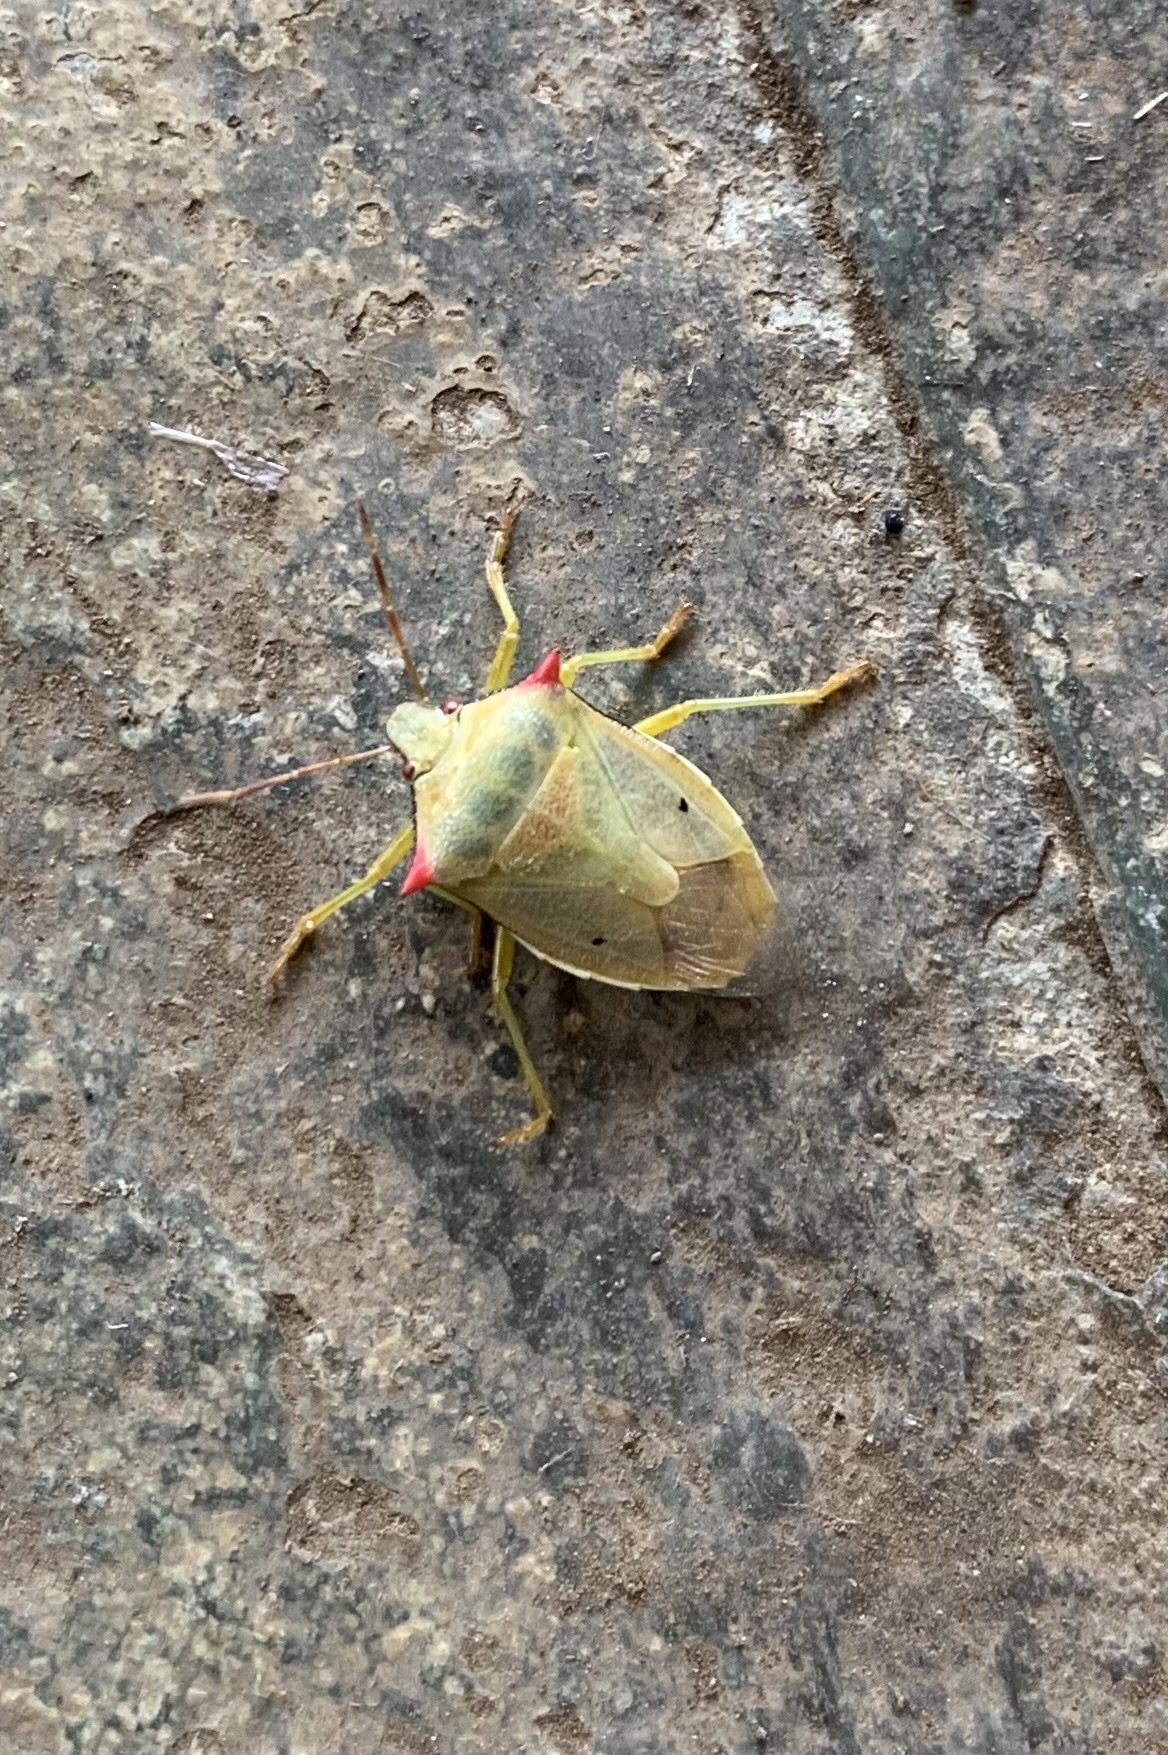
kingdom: Animalia
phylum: Arthropoda
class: Insecta
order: Hemiptera
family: Pentatomidae
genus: Brontocoris
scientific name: Brontocoris
